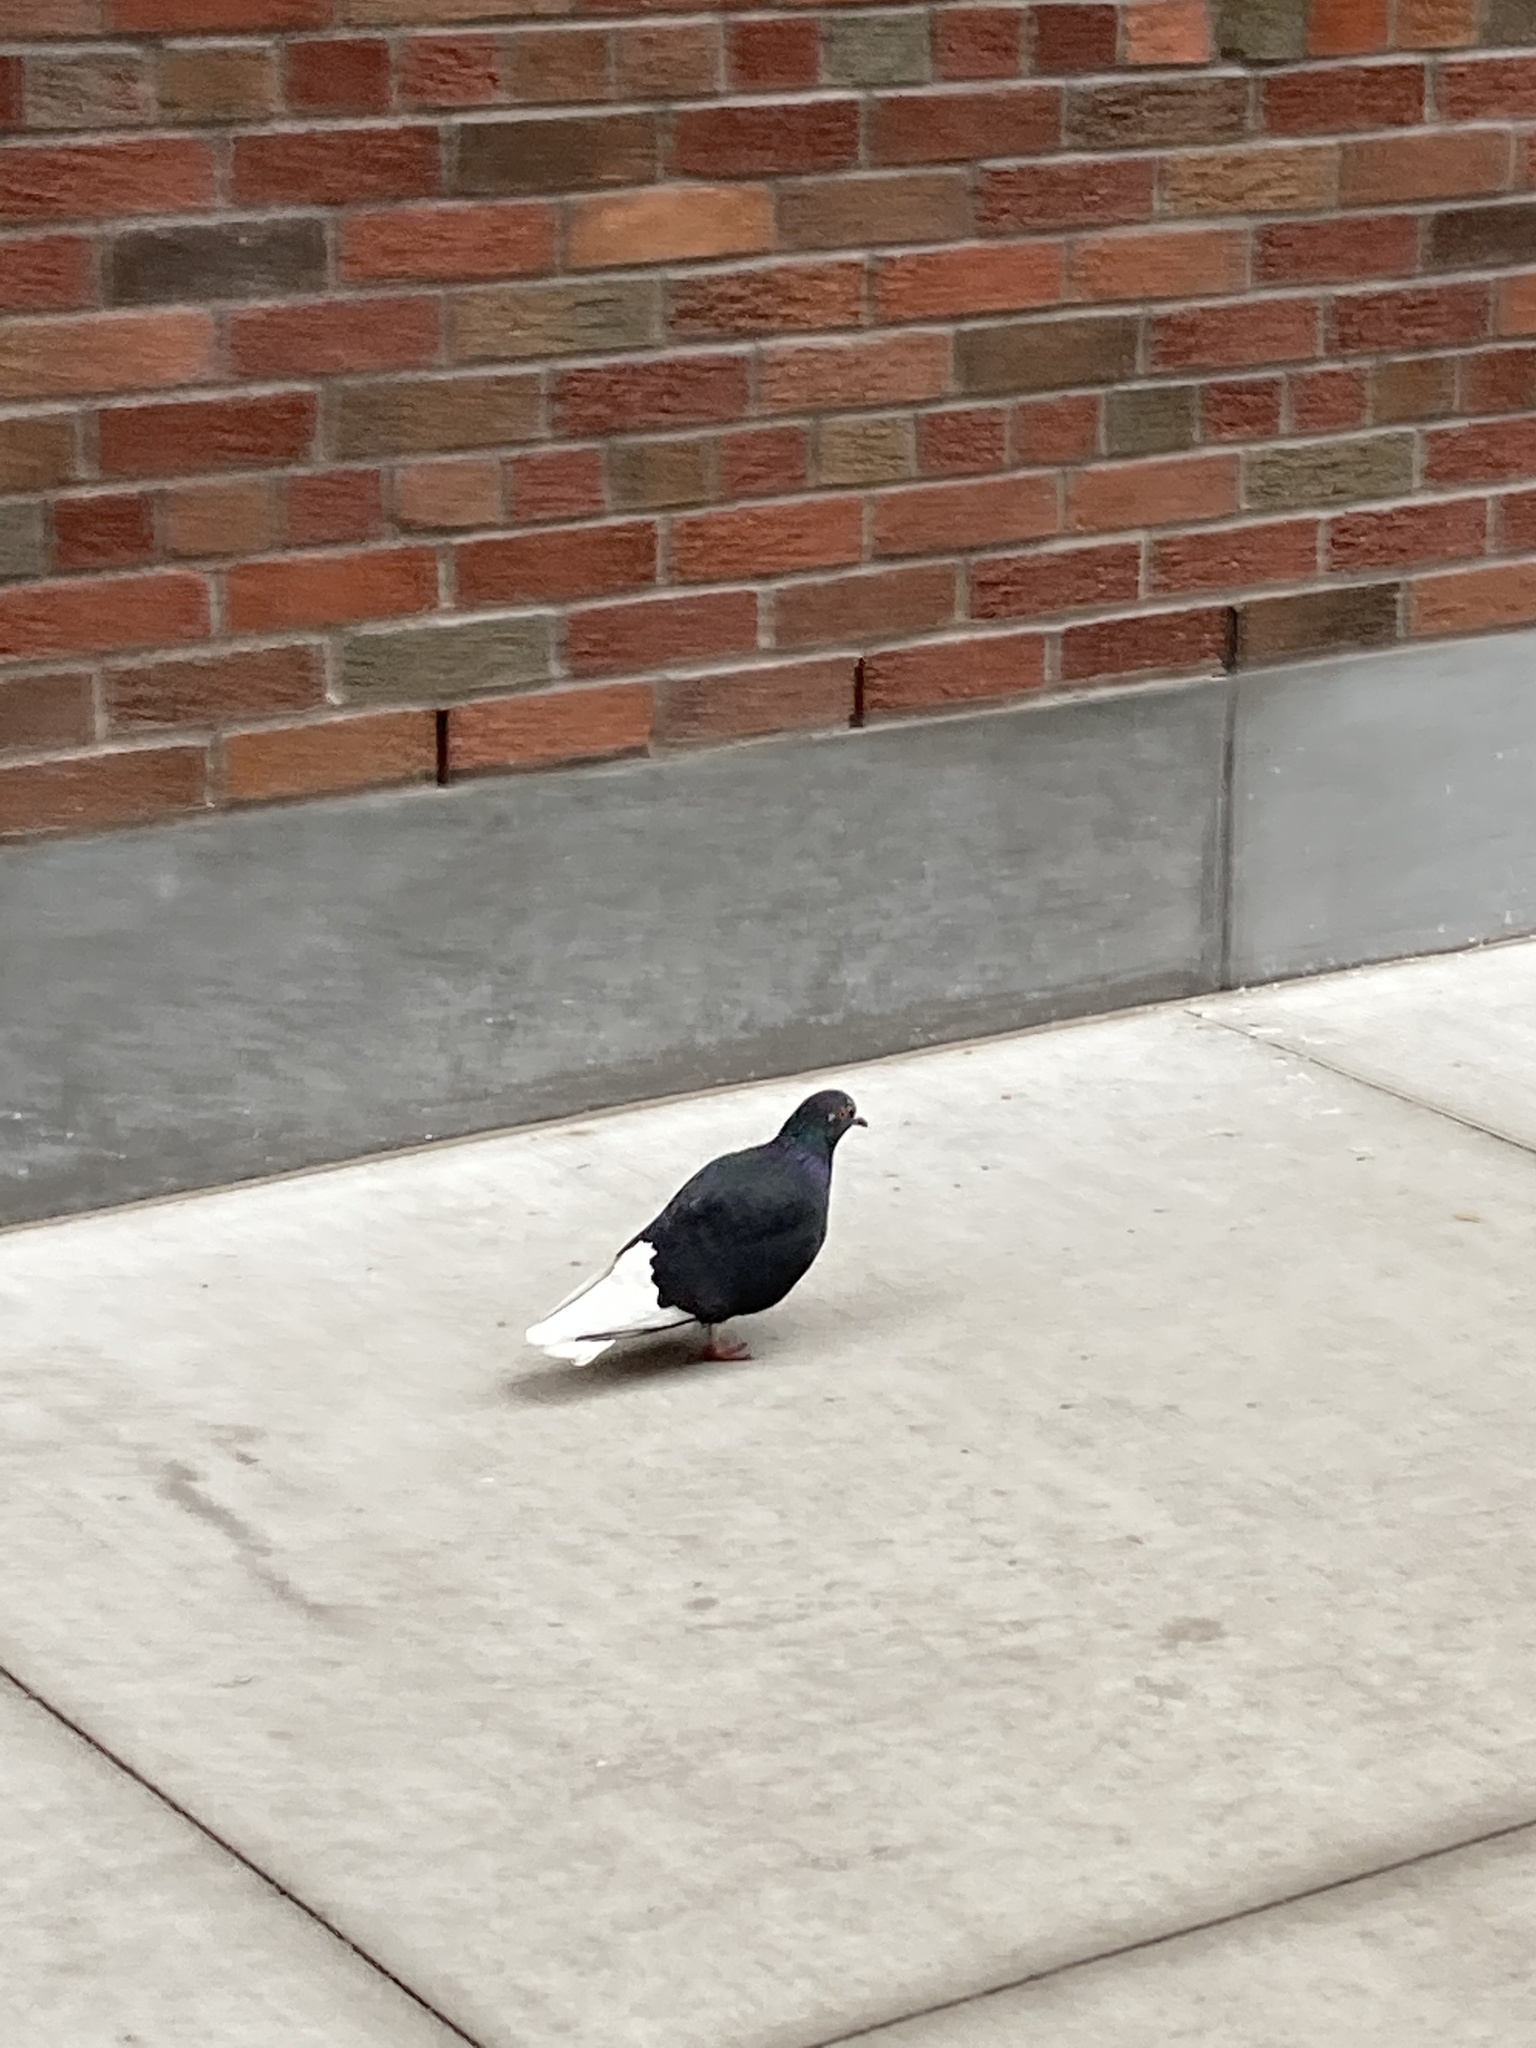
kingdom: Animalia
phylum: Chordata
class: Aves
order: Columbiformes
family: Columbidae
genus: Columba
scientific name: Columba livia
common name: Rock pigeon
